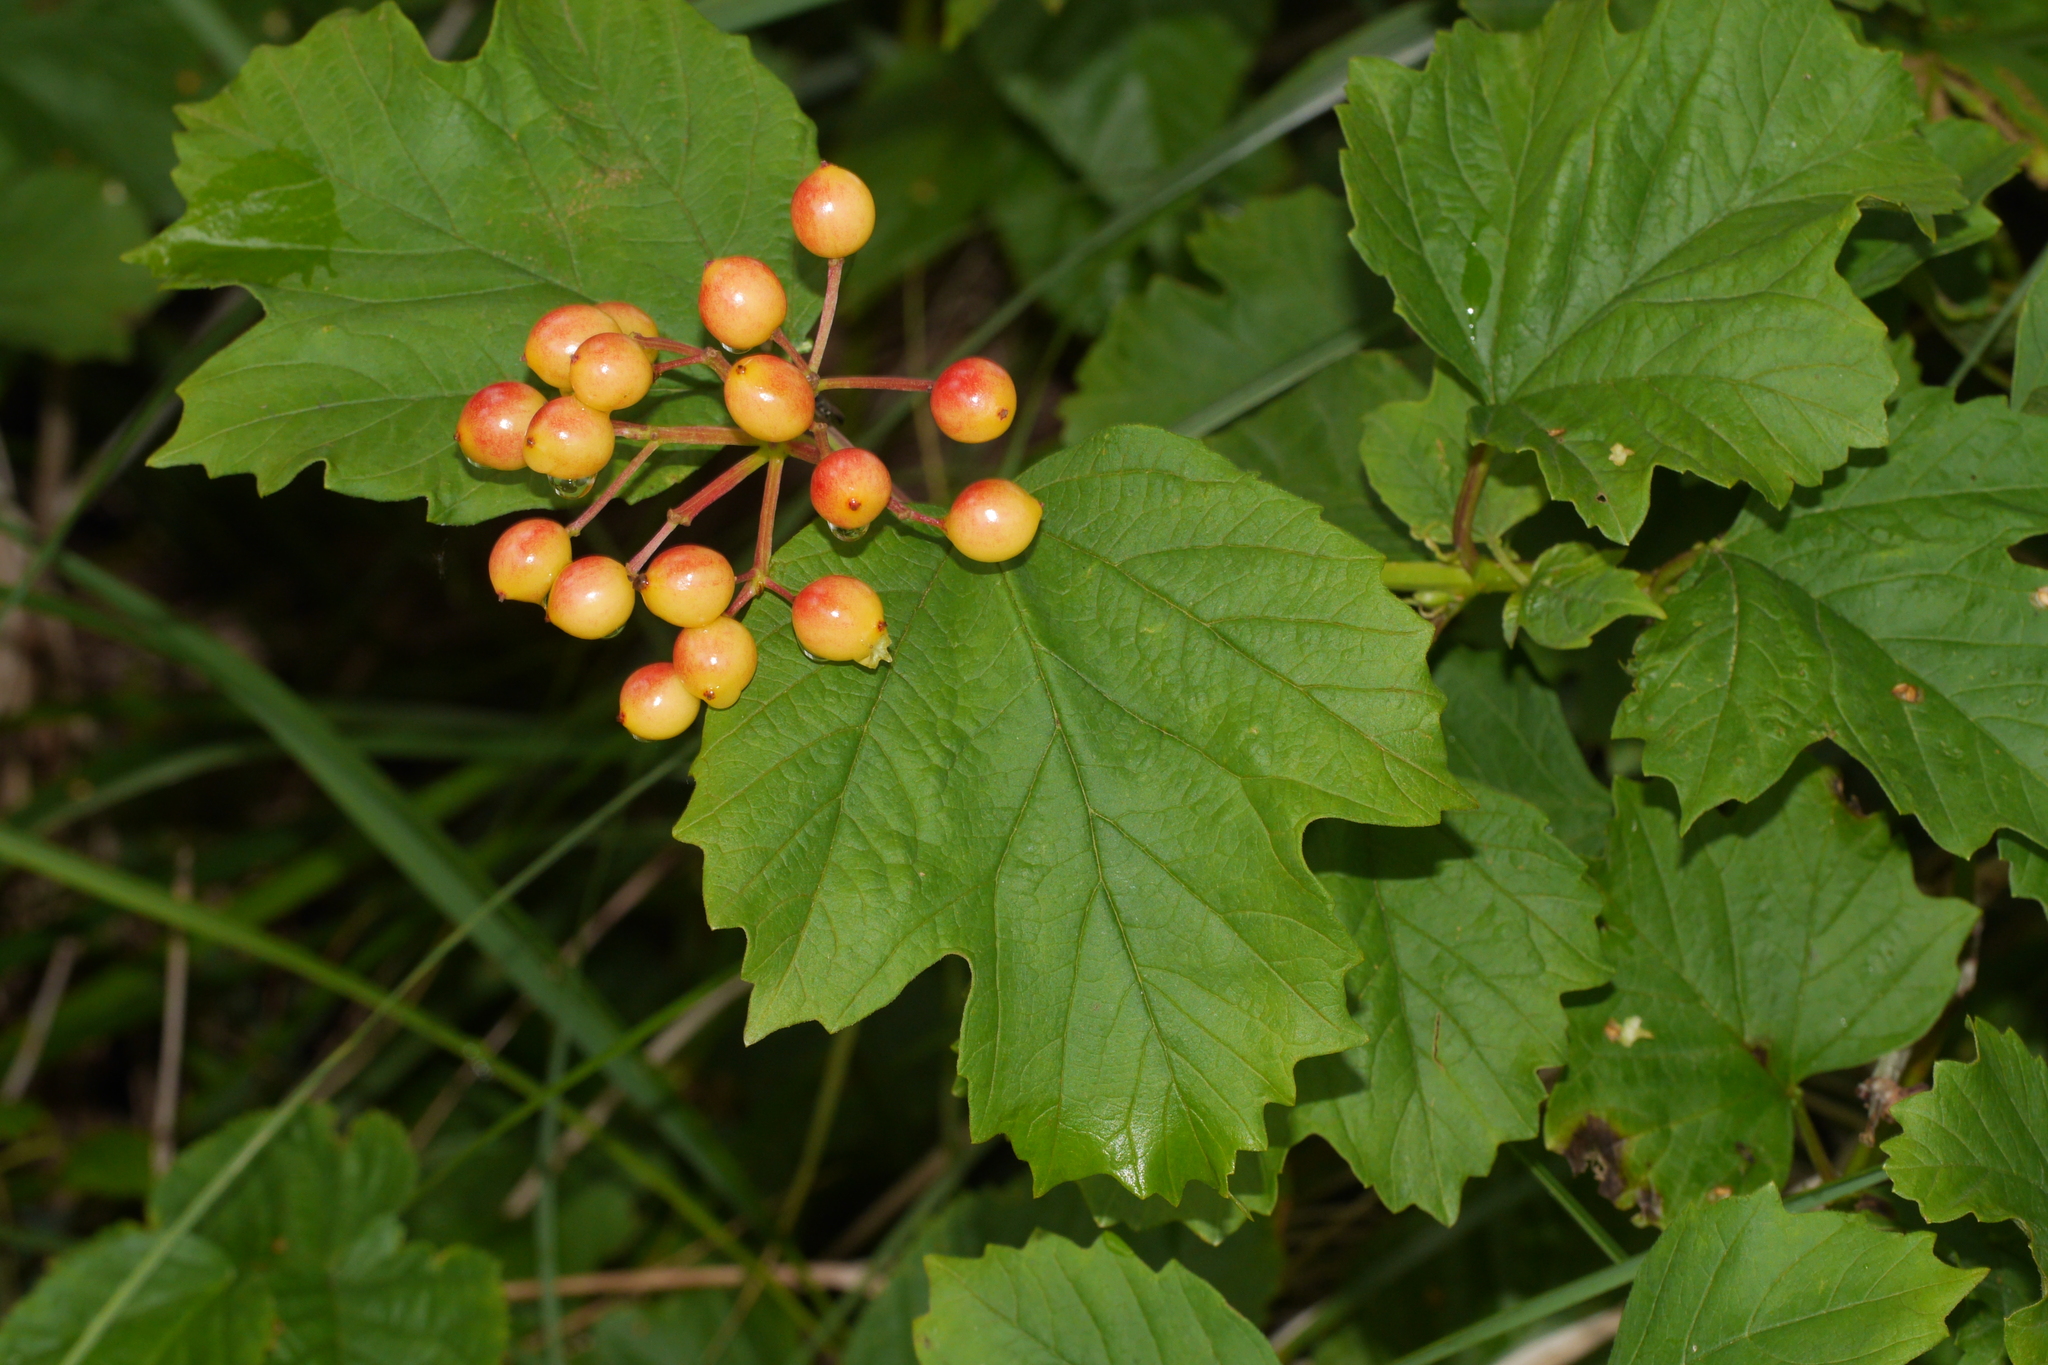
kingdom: Plantae
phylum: Tracheophyta
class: Magnoliopsida
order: Dipsacales
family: Viburnaceae
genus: Viburnum
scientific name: Viburnum opulus
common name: Guelder-rose
